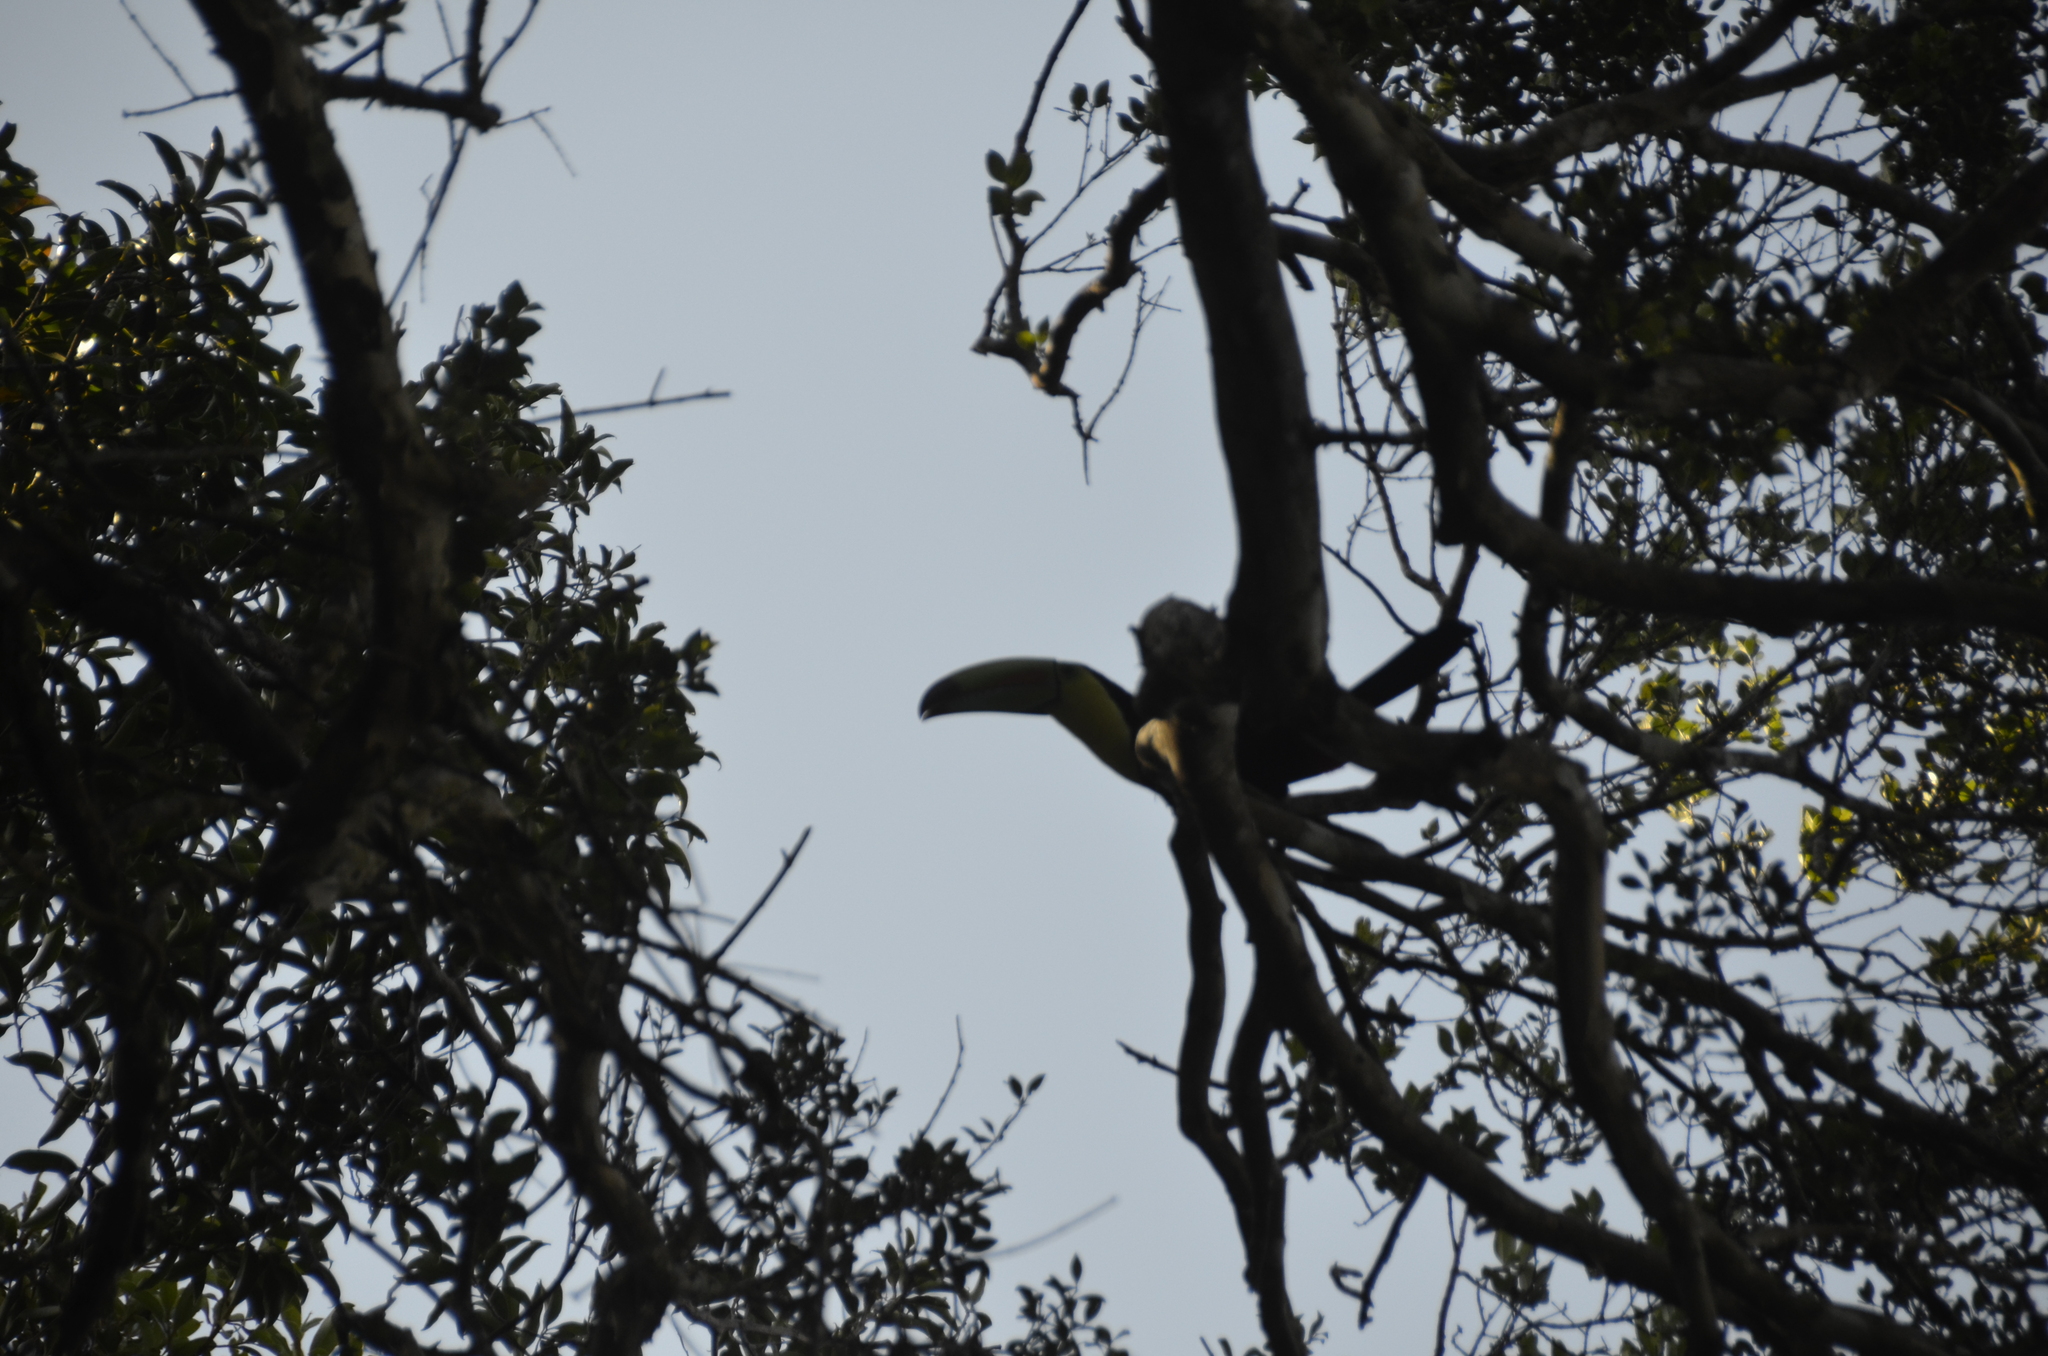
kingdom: Animalia
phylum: Chordata
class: Aves
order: Piciformes
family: Ramphastidae
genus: Ramphastos
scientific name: Ramphastos sulfuratus
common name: Keel-billed toucan
